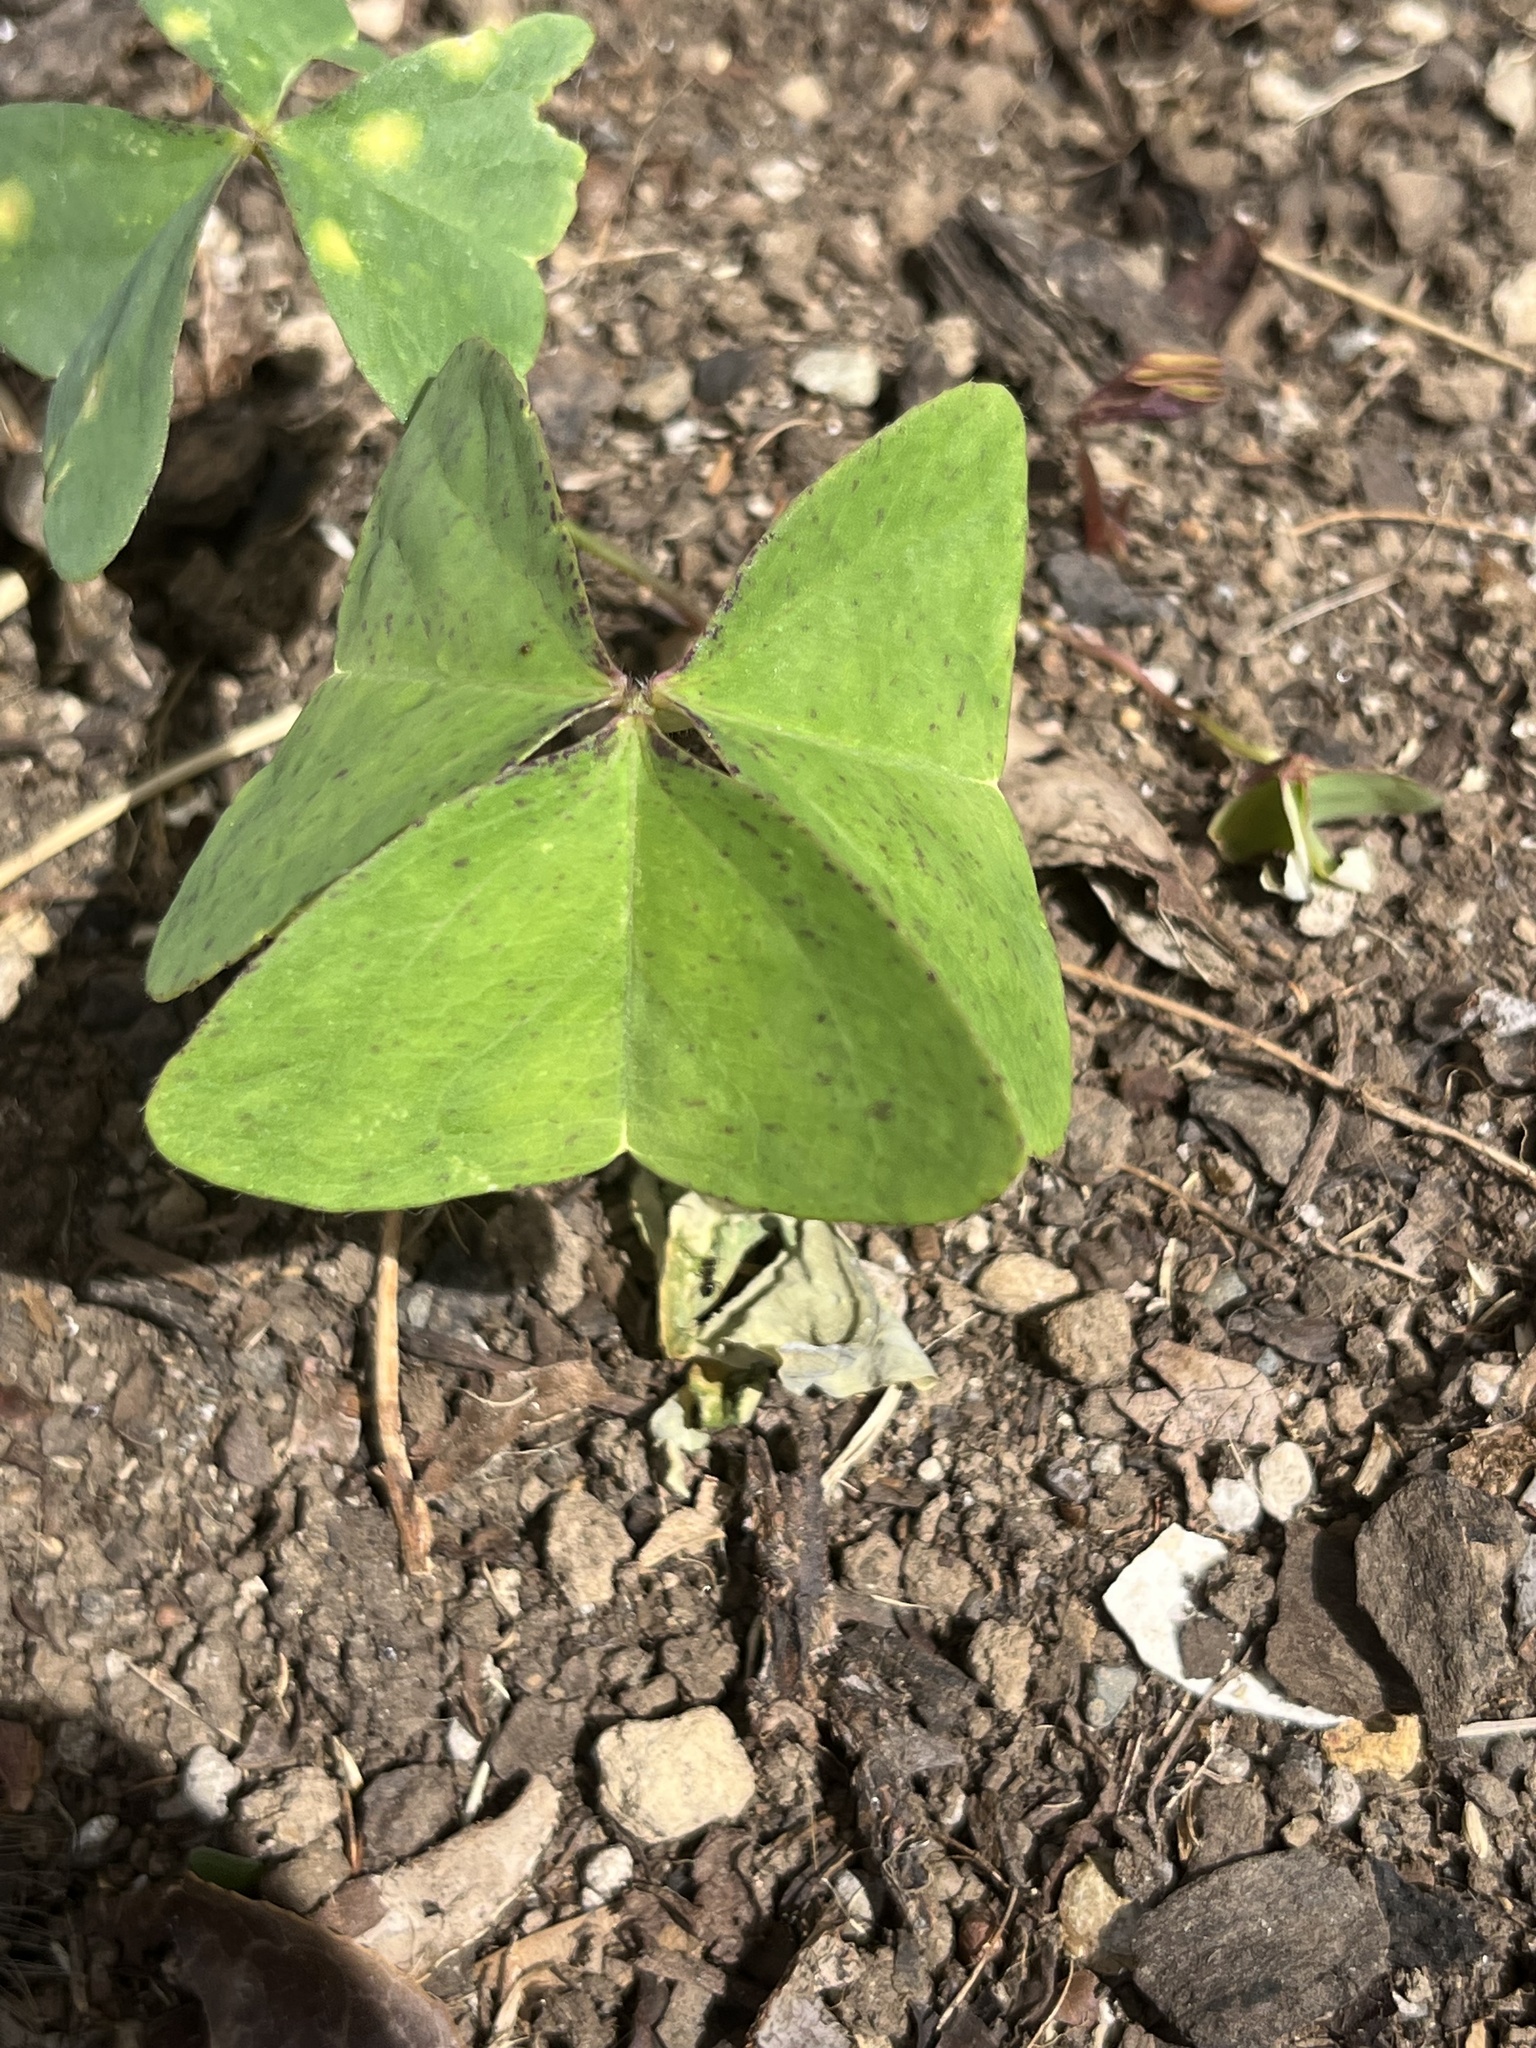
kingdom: Plantae
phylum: Tracheophyta
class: Magnoliopsida
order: Oxalidales
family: Oxalidaceae
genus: Oxalis
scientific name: Oxalis latifolia
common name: Garden pink-sorrel
